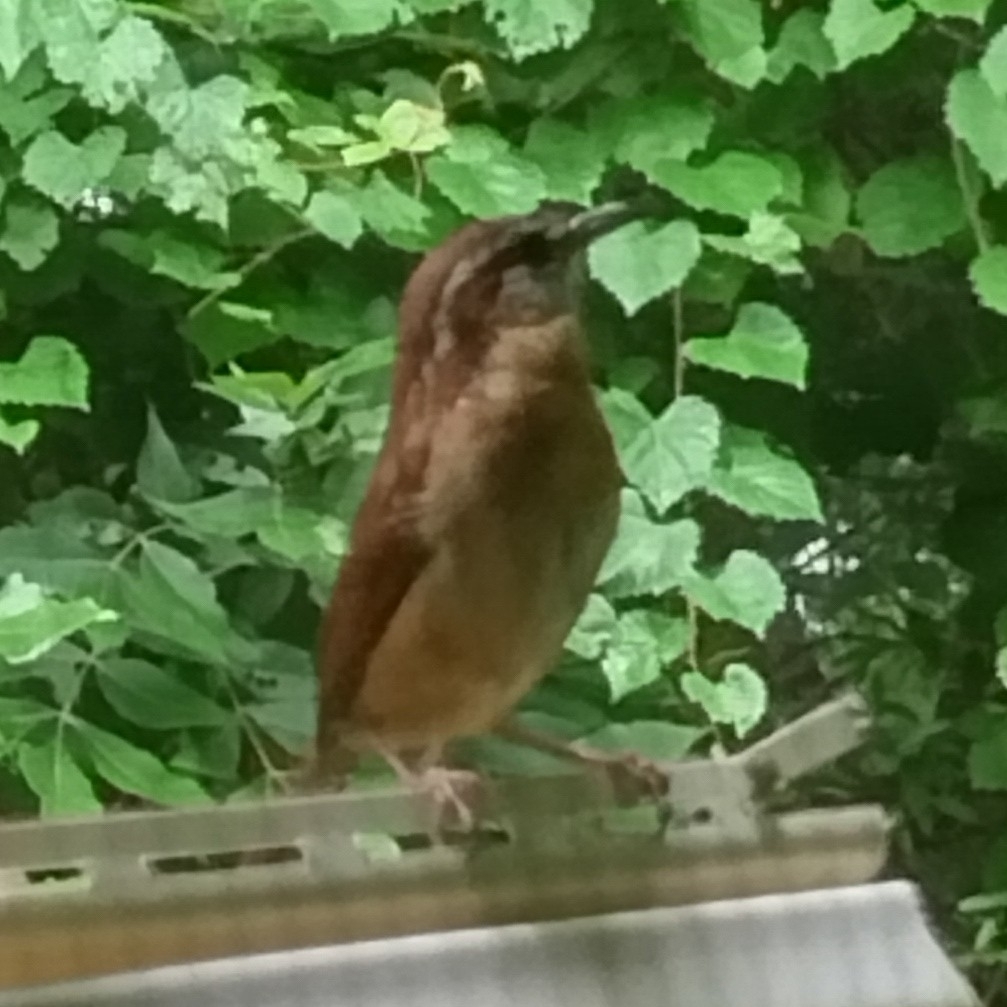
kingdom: Animalia
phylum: Chordata
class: Aves
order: Passeriformes
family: Troglodytidae
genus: Thryothorus
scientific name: Thryothorus ludovicianus
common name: Carolina wren
